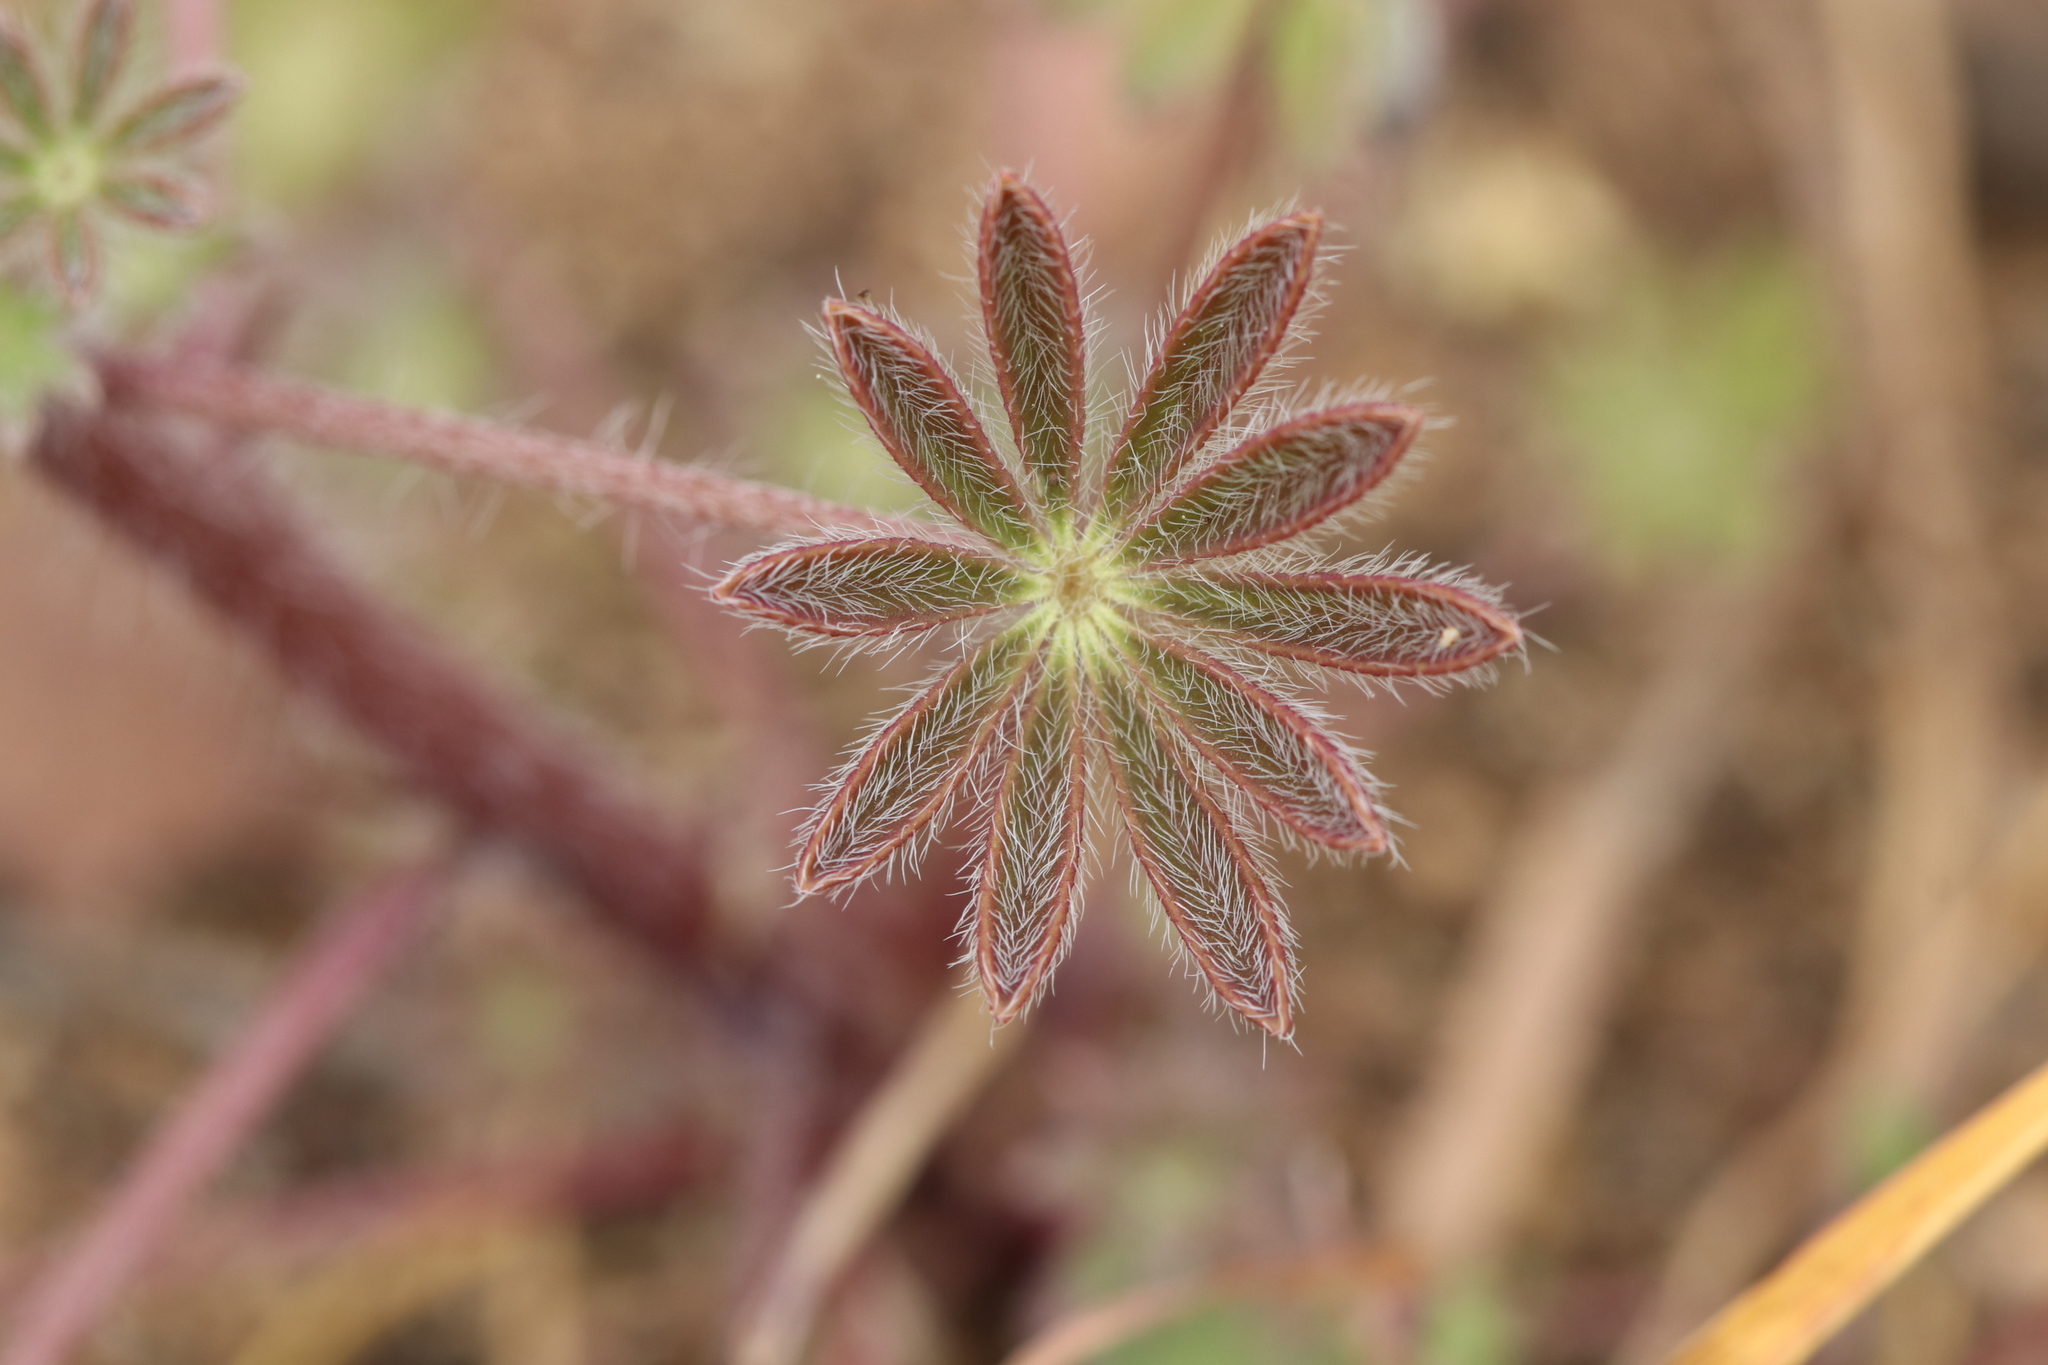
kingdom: Plantae
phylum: Tracheophyta
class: Magnoliopsida
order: Fabales
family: Fabaceae
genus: Lupinus
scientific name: Lupinus sparsiflorus
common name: Coulter's lupine
